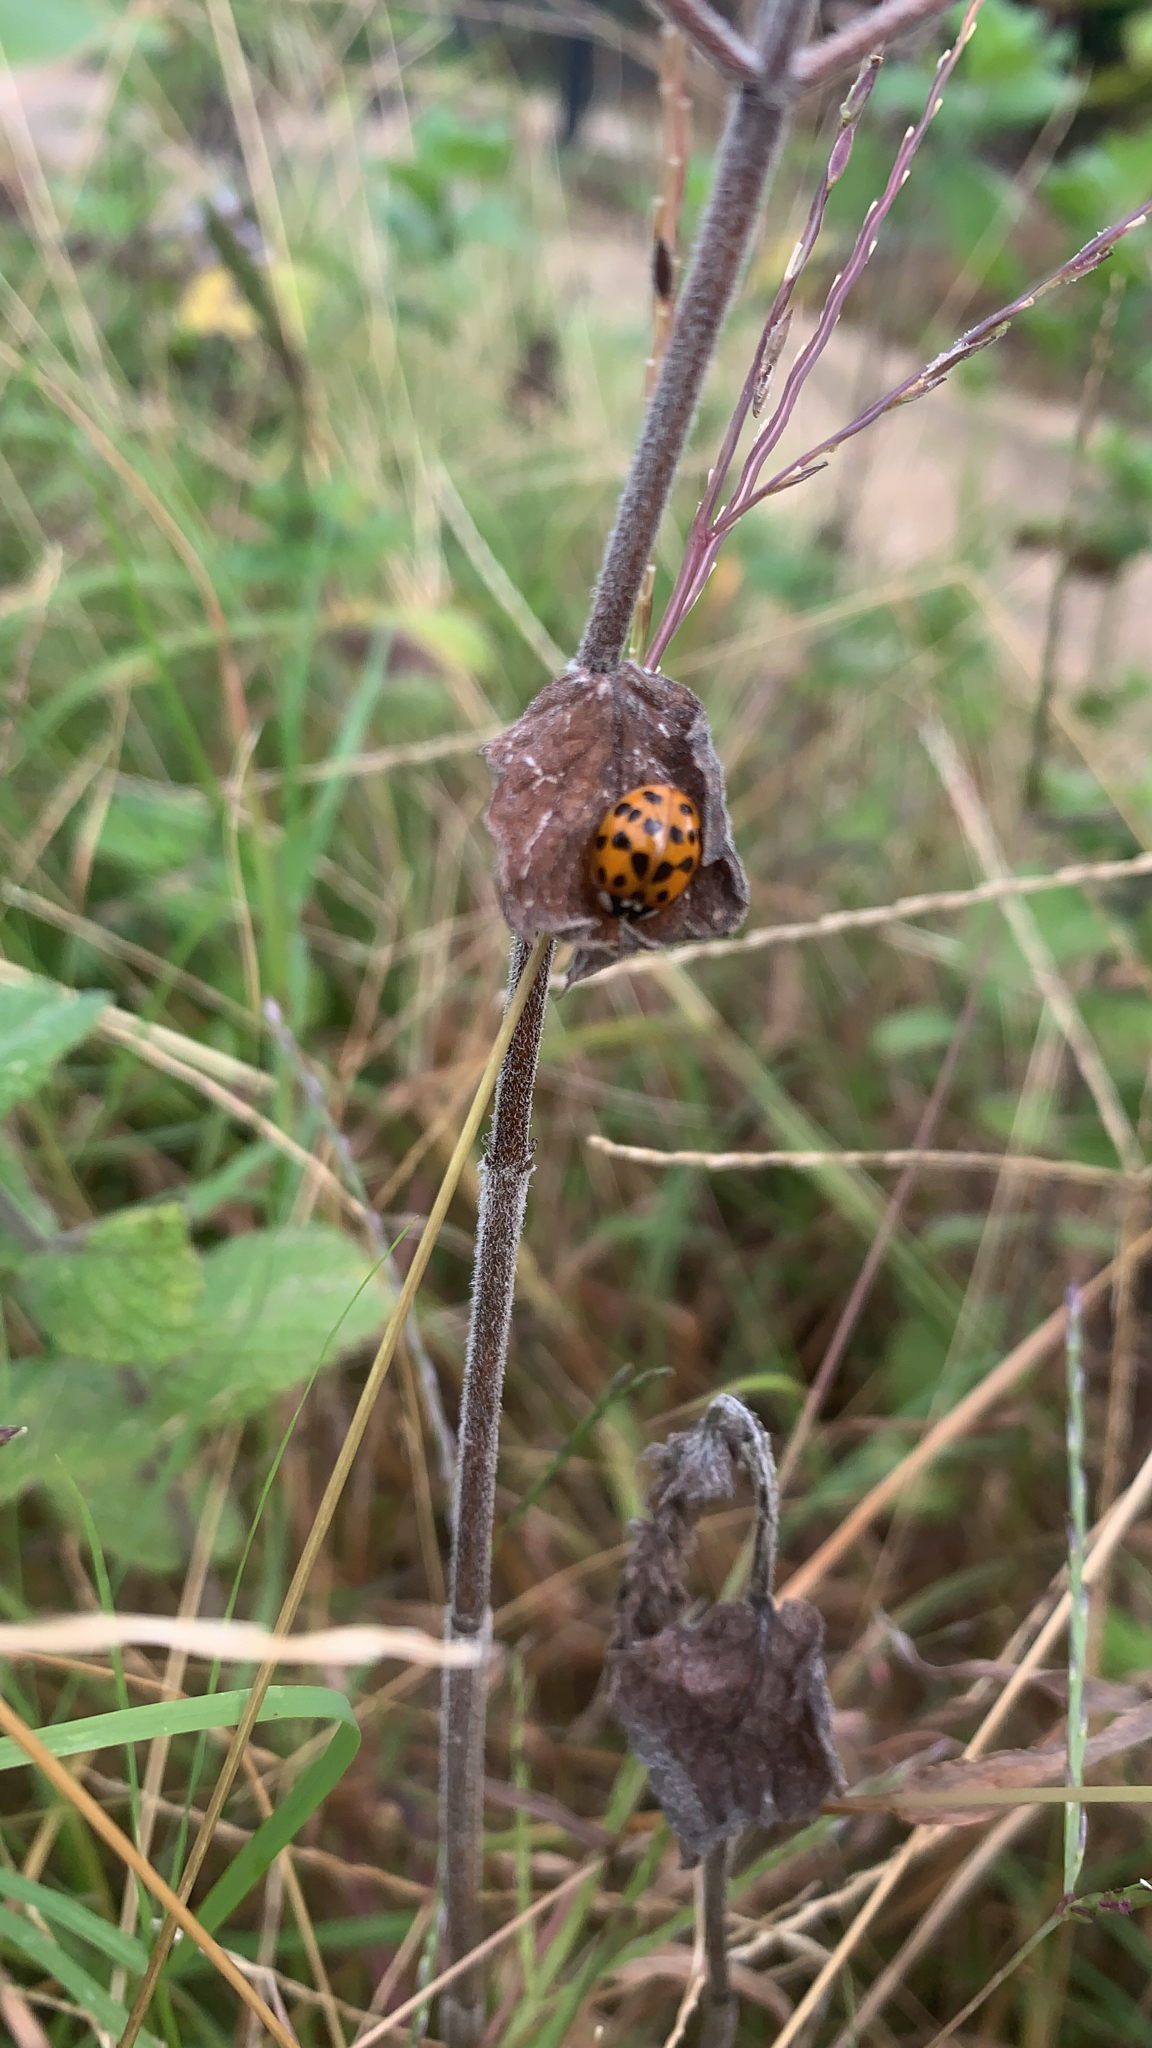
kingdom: Animalia
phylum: Arthropoda
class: Insecta
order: Coleoptera
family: Coccinellidae
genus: Harmonia
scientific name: Harmonia axyridis
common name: Harlequin ladybird
